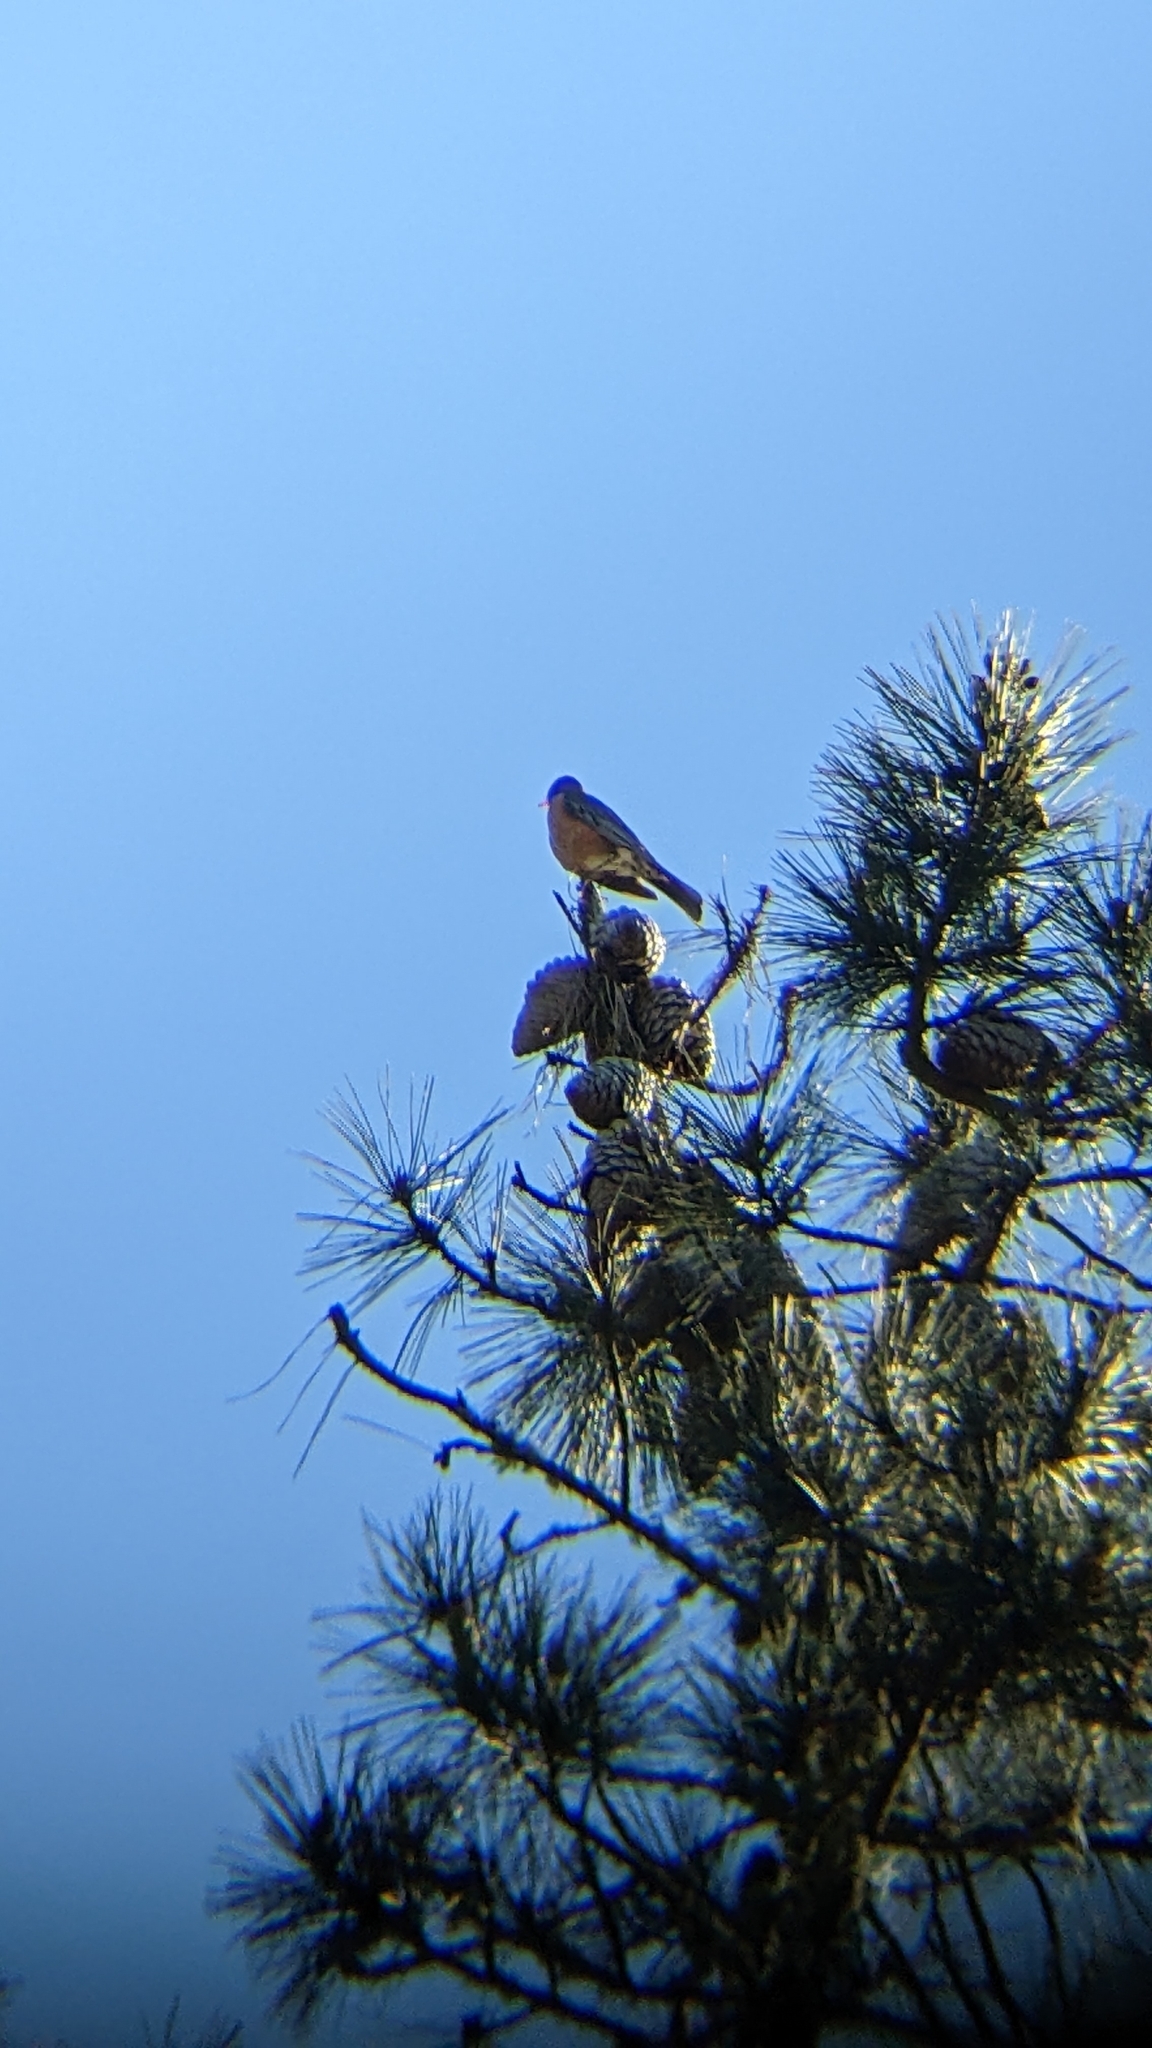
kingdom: Animalia
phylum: Chordata
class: Aves
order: Passeriformes
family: Turdidae
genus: Turdus
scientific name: Turdus migratorius
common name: American robin
